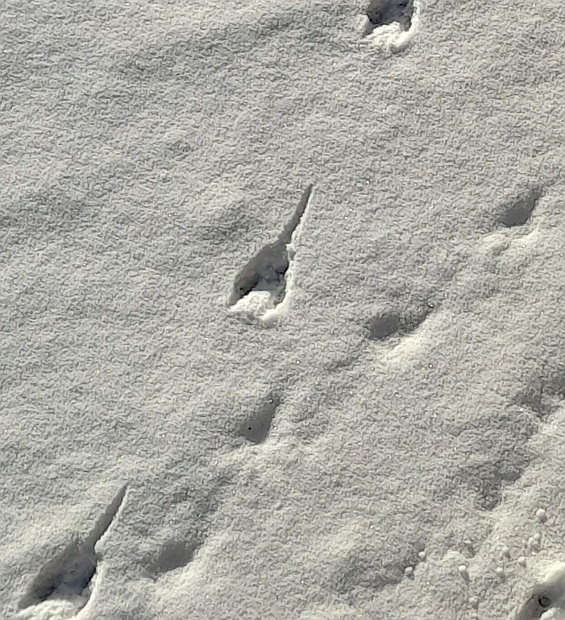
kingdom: Animalia
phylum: Chordata
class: Mammalia
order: Rodentia
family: Muridae
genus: Rattus
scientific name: Rattus norvegicus
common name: Brown rat
